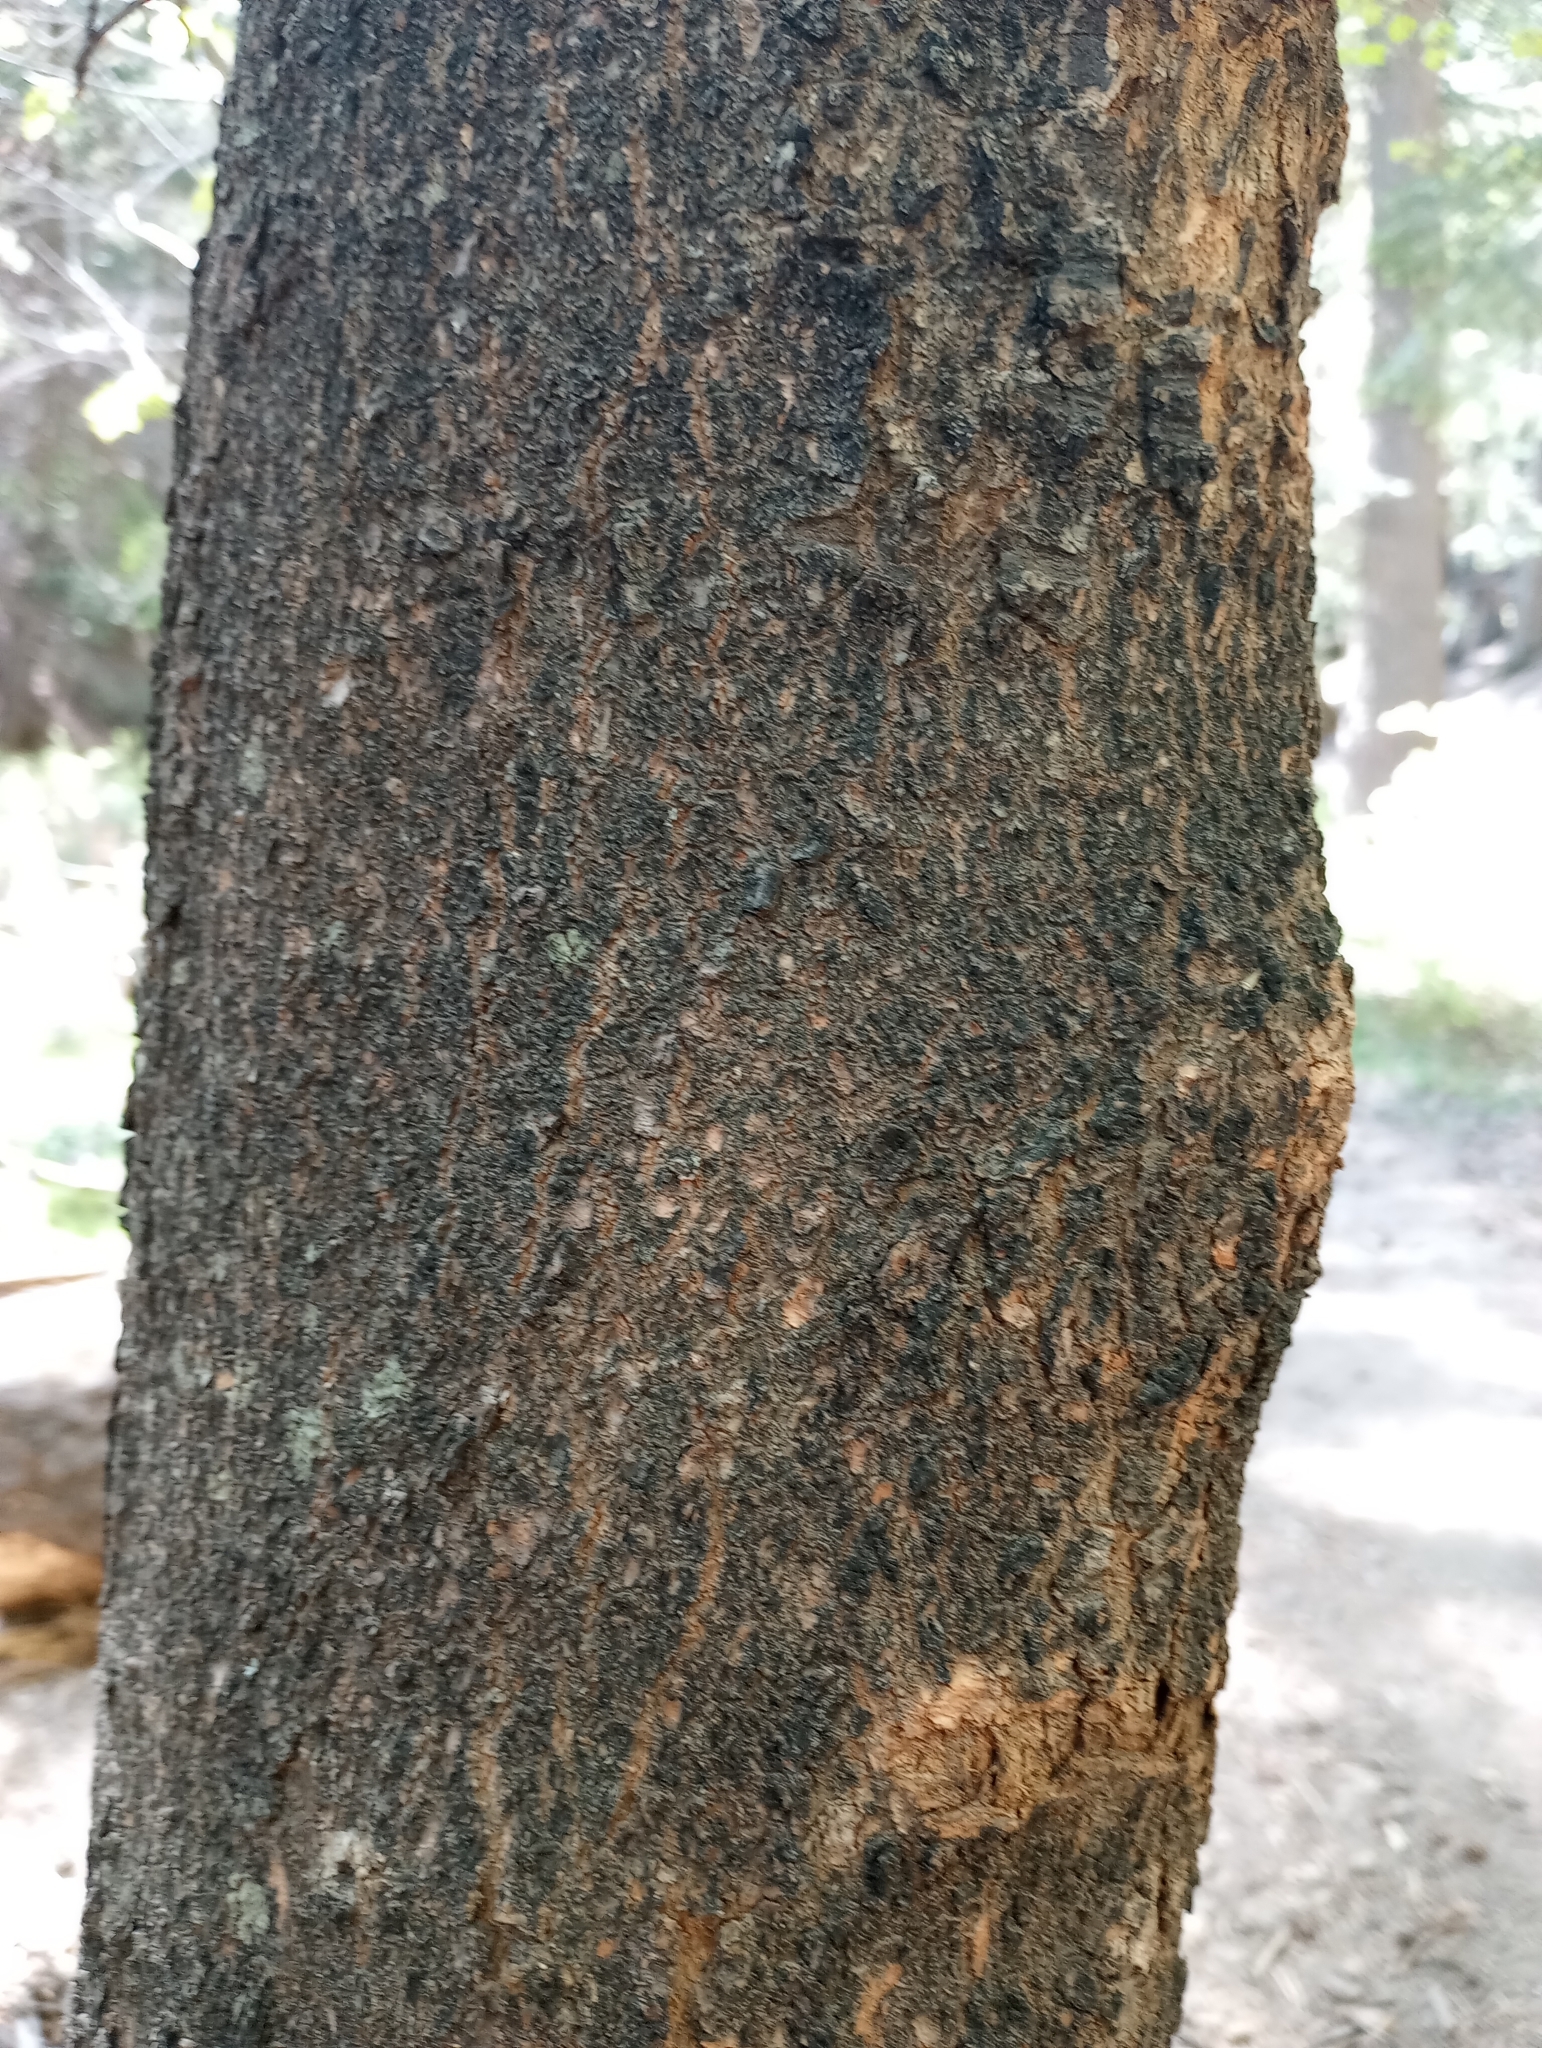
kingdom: Plantae
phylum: Tracheophyta
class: Magnoliopsida
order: Sapindales
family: Sapindaceae
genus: Acer
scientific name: Acer grandidentatum
